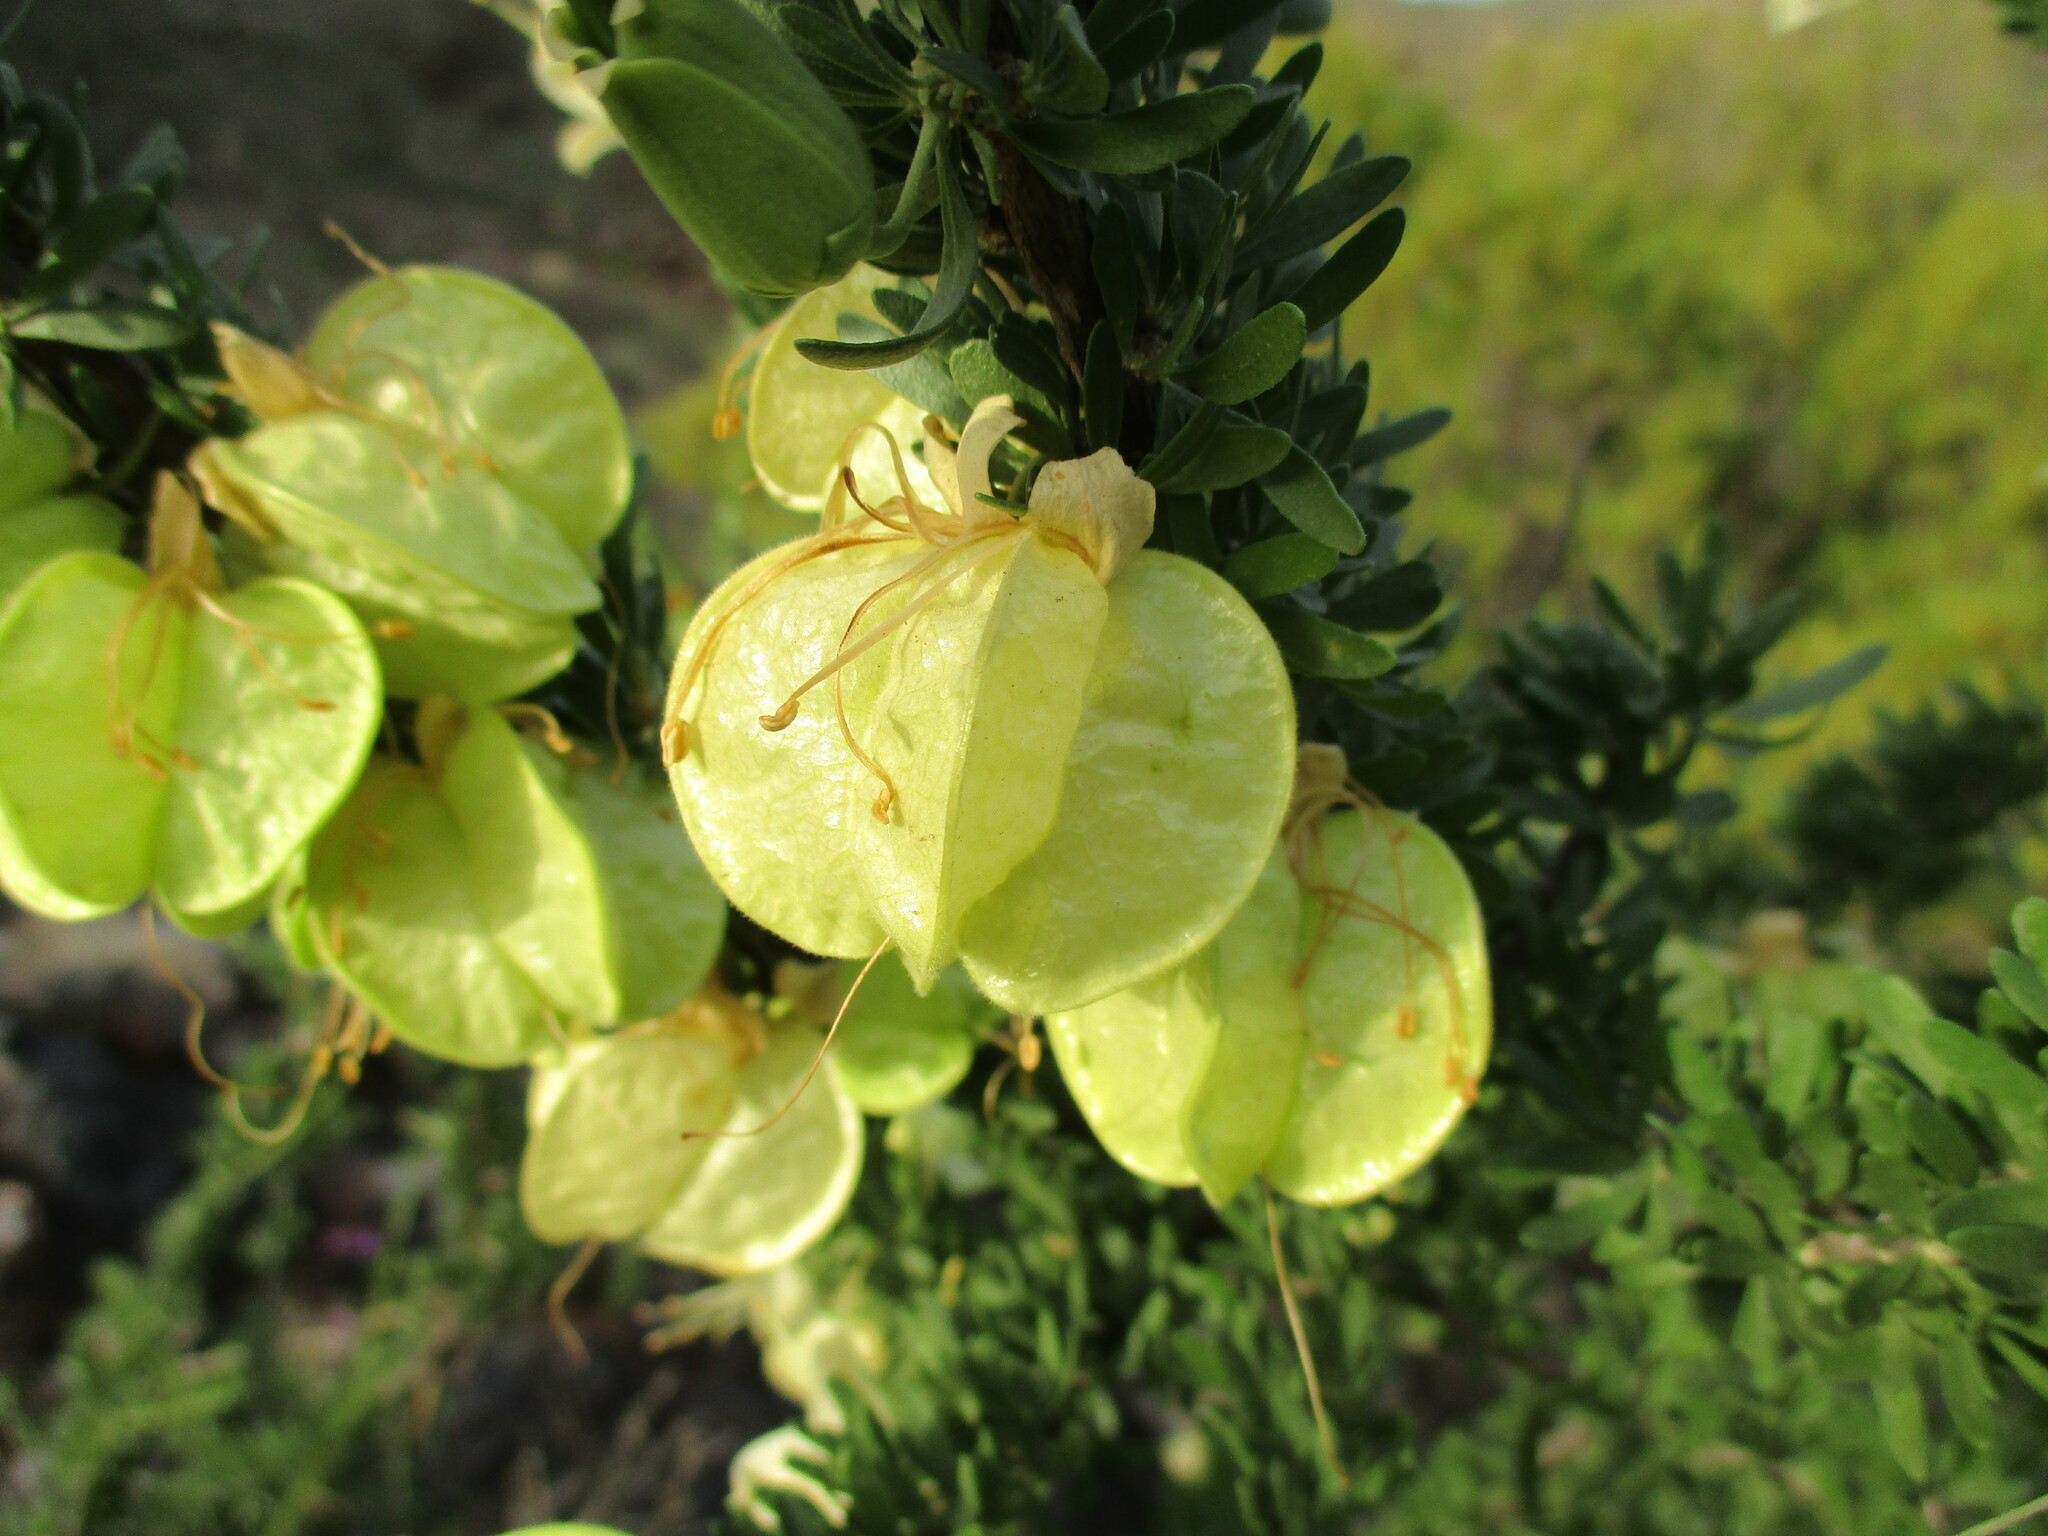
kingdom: Plantae
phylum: Tracheophyta
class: Magnoliopsida
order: Sapindales
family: Meliaceae
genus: Nymania
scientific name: Nymania capensis
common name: Chinese lantern tree
